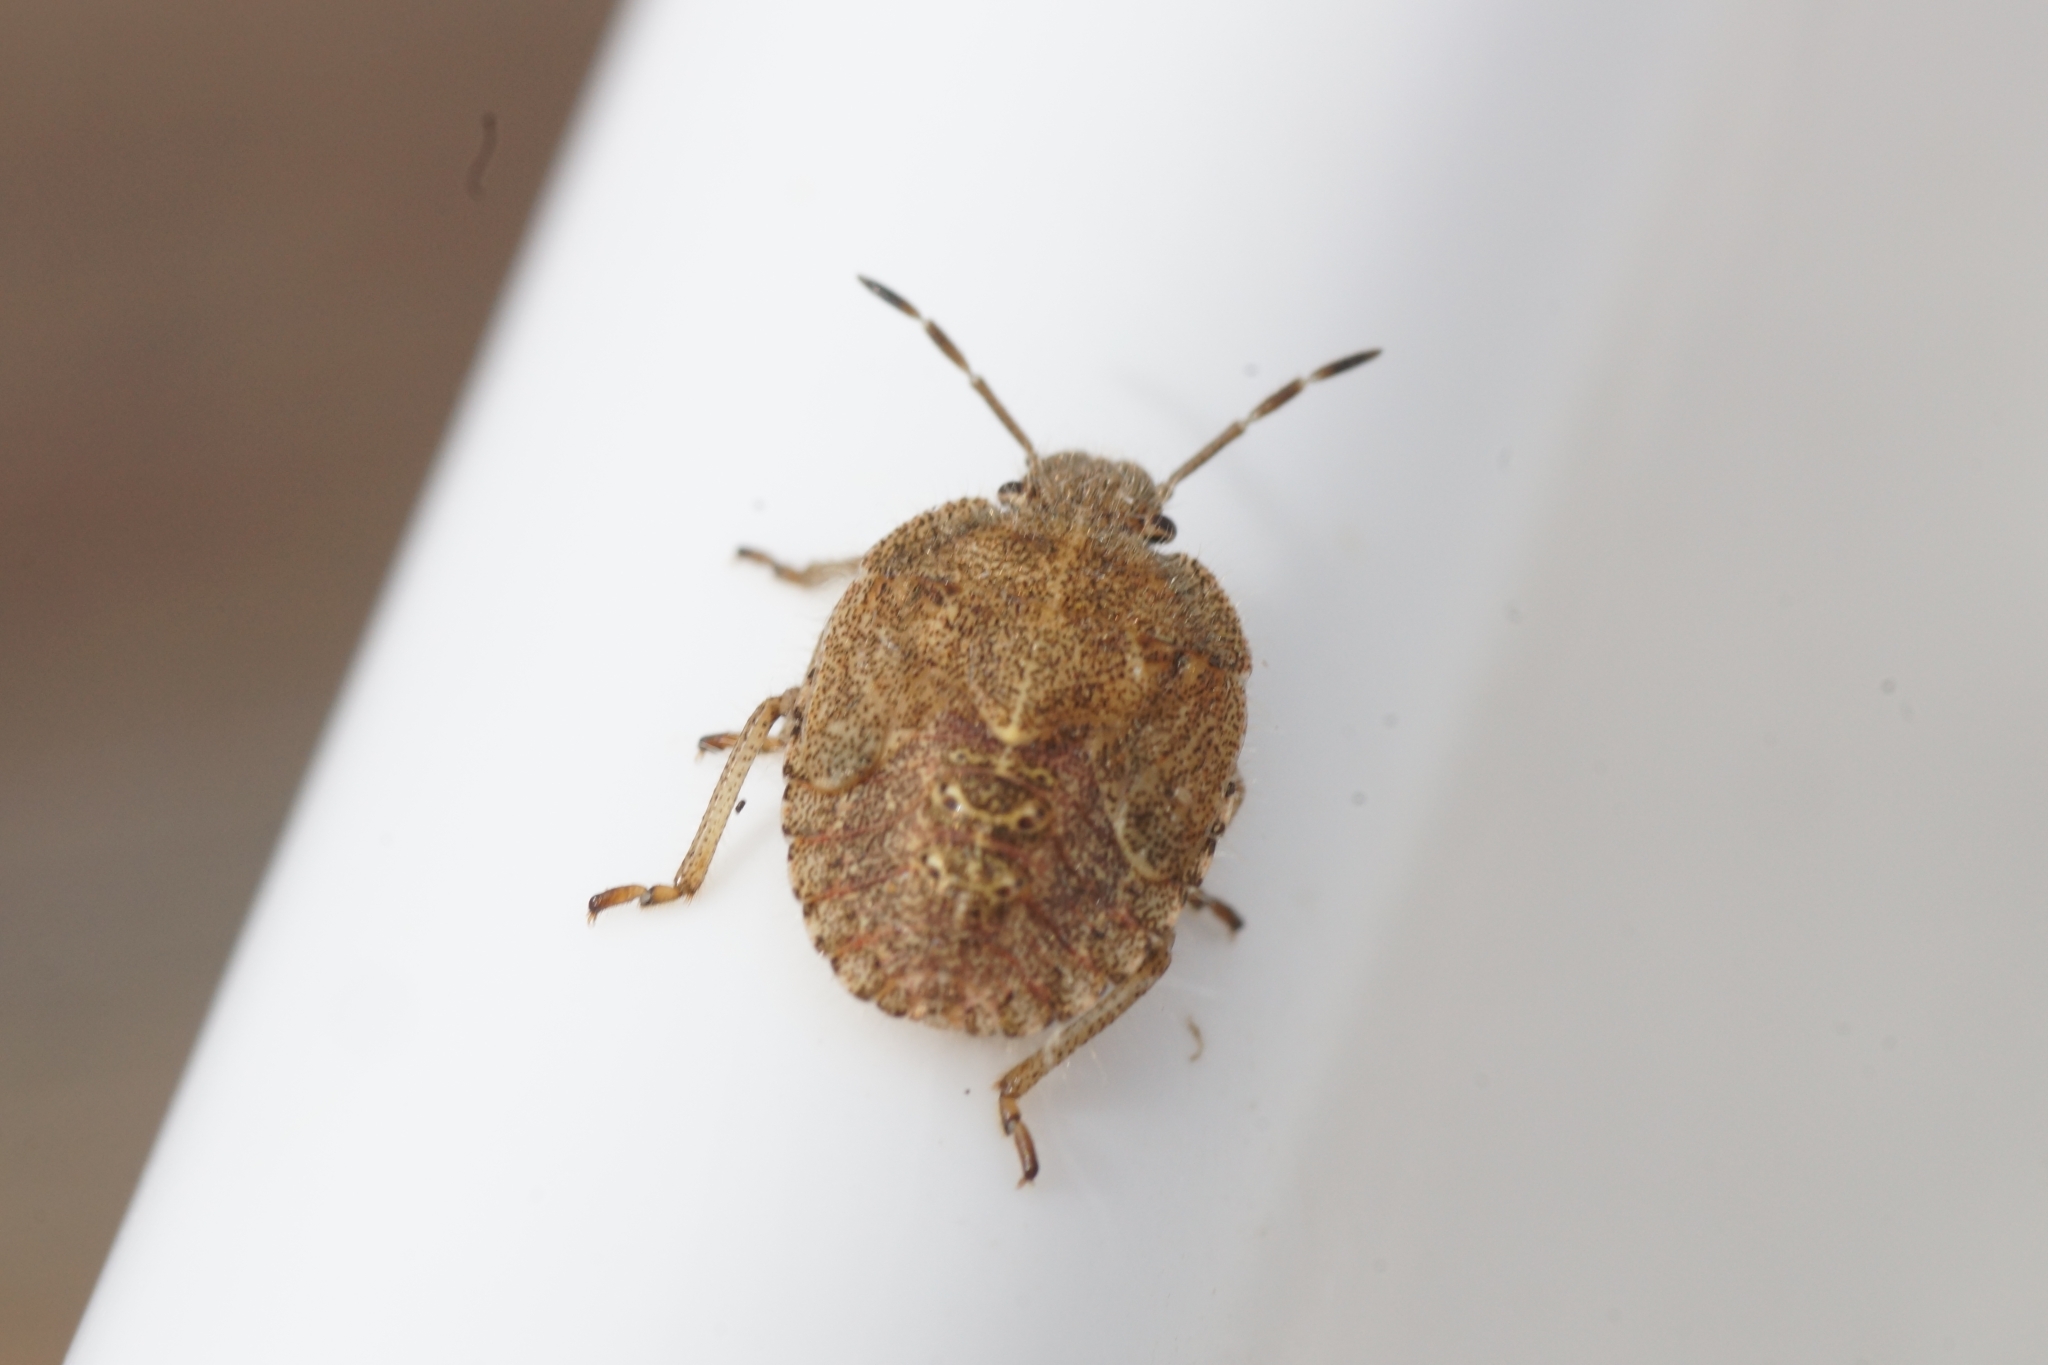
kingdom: Animalia
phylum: Arthropoda
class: Insecta
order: Hemiptera
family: Pentatomidae
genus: Dolycoris
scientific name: Dolycoris baccarum
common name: Sloe bug
